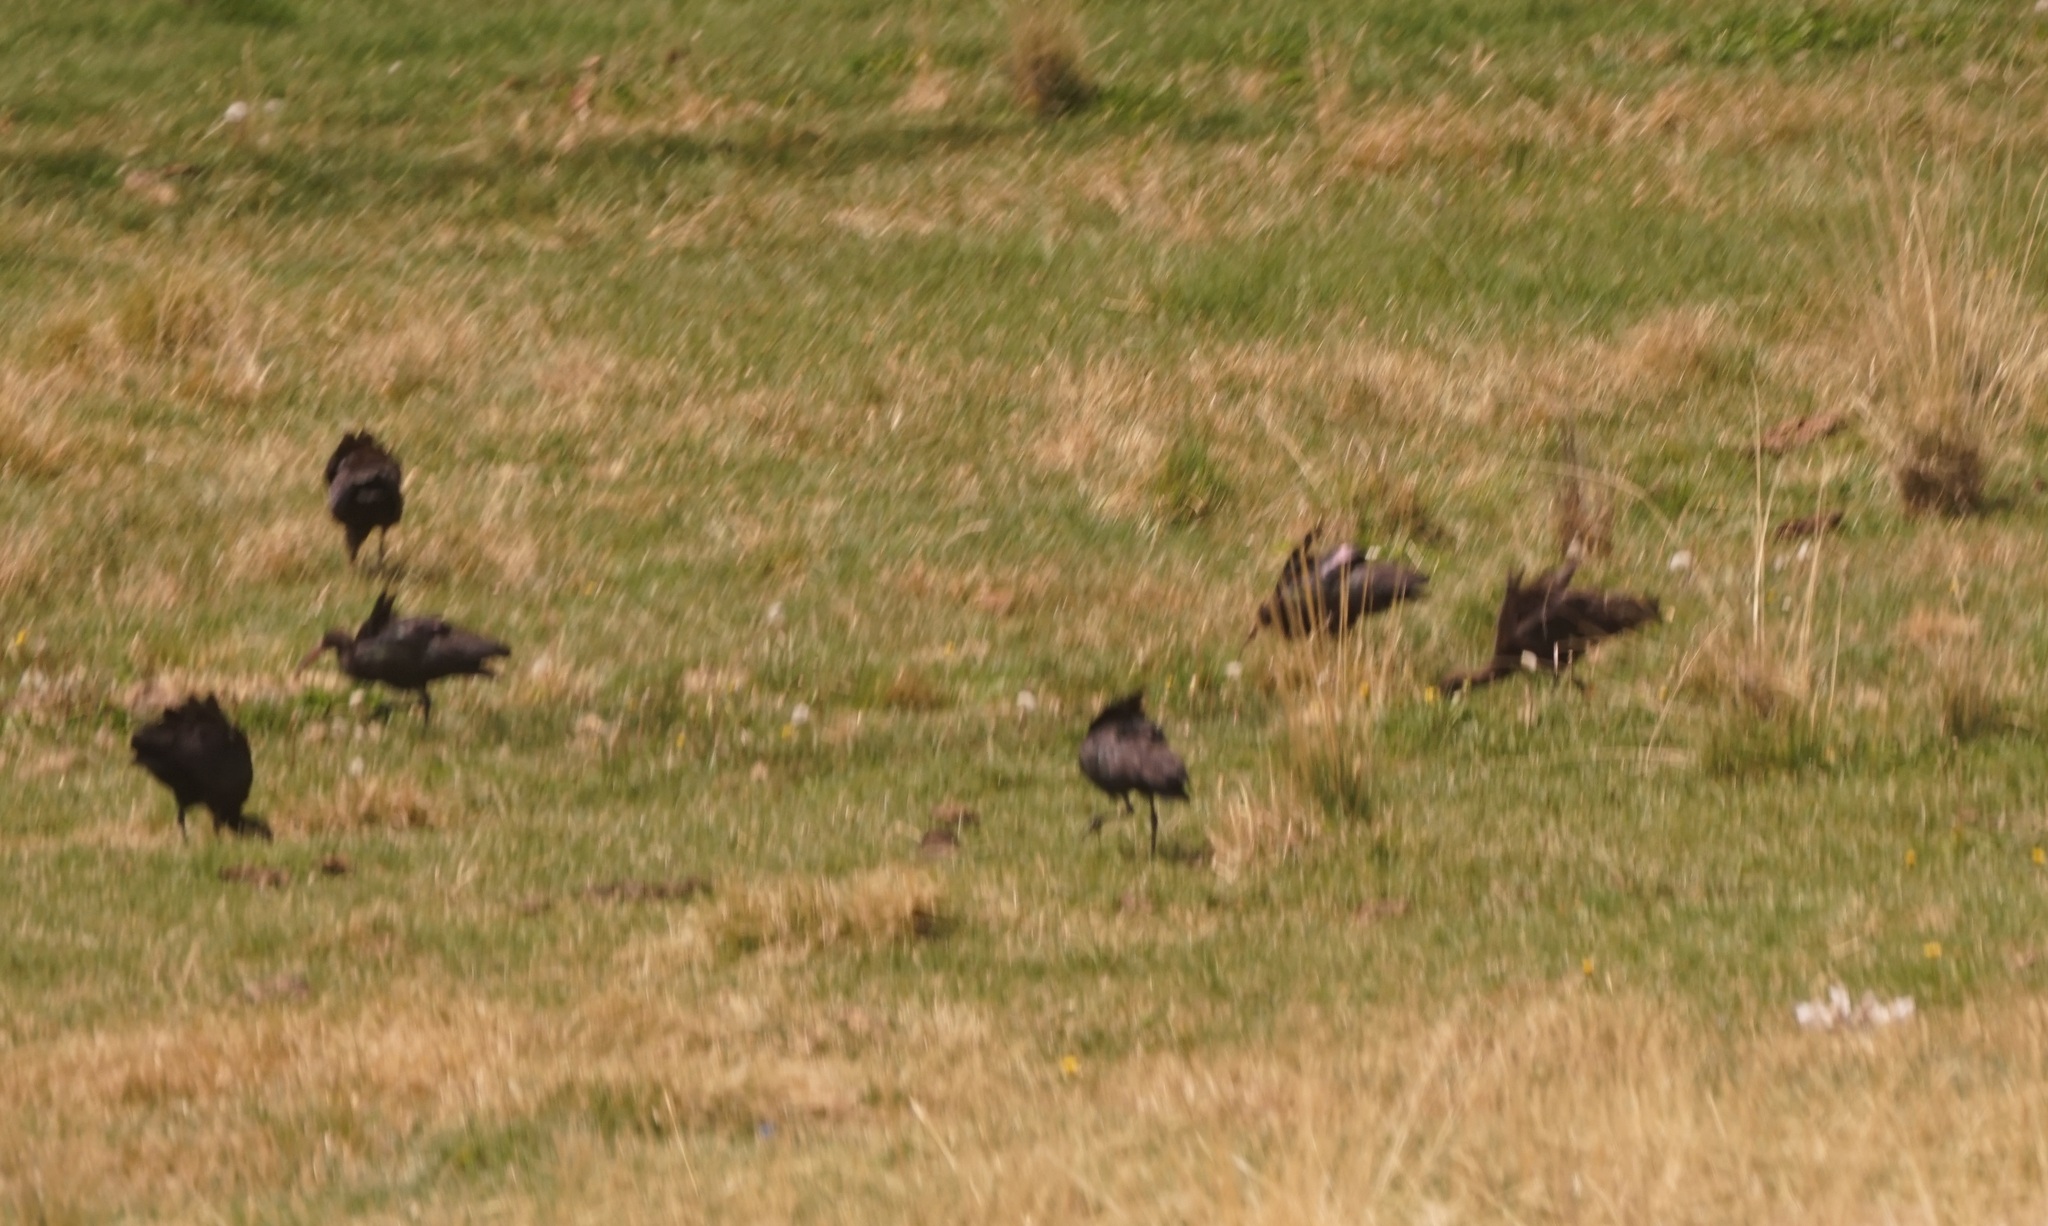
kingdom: Animalia
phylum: Chordata
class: Aves
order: Pelecaniformes
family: Threskiornithidae
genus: Plegadis
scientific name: Plegadis ridgwayi
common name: Puna ibis
